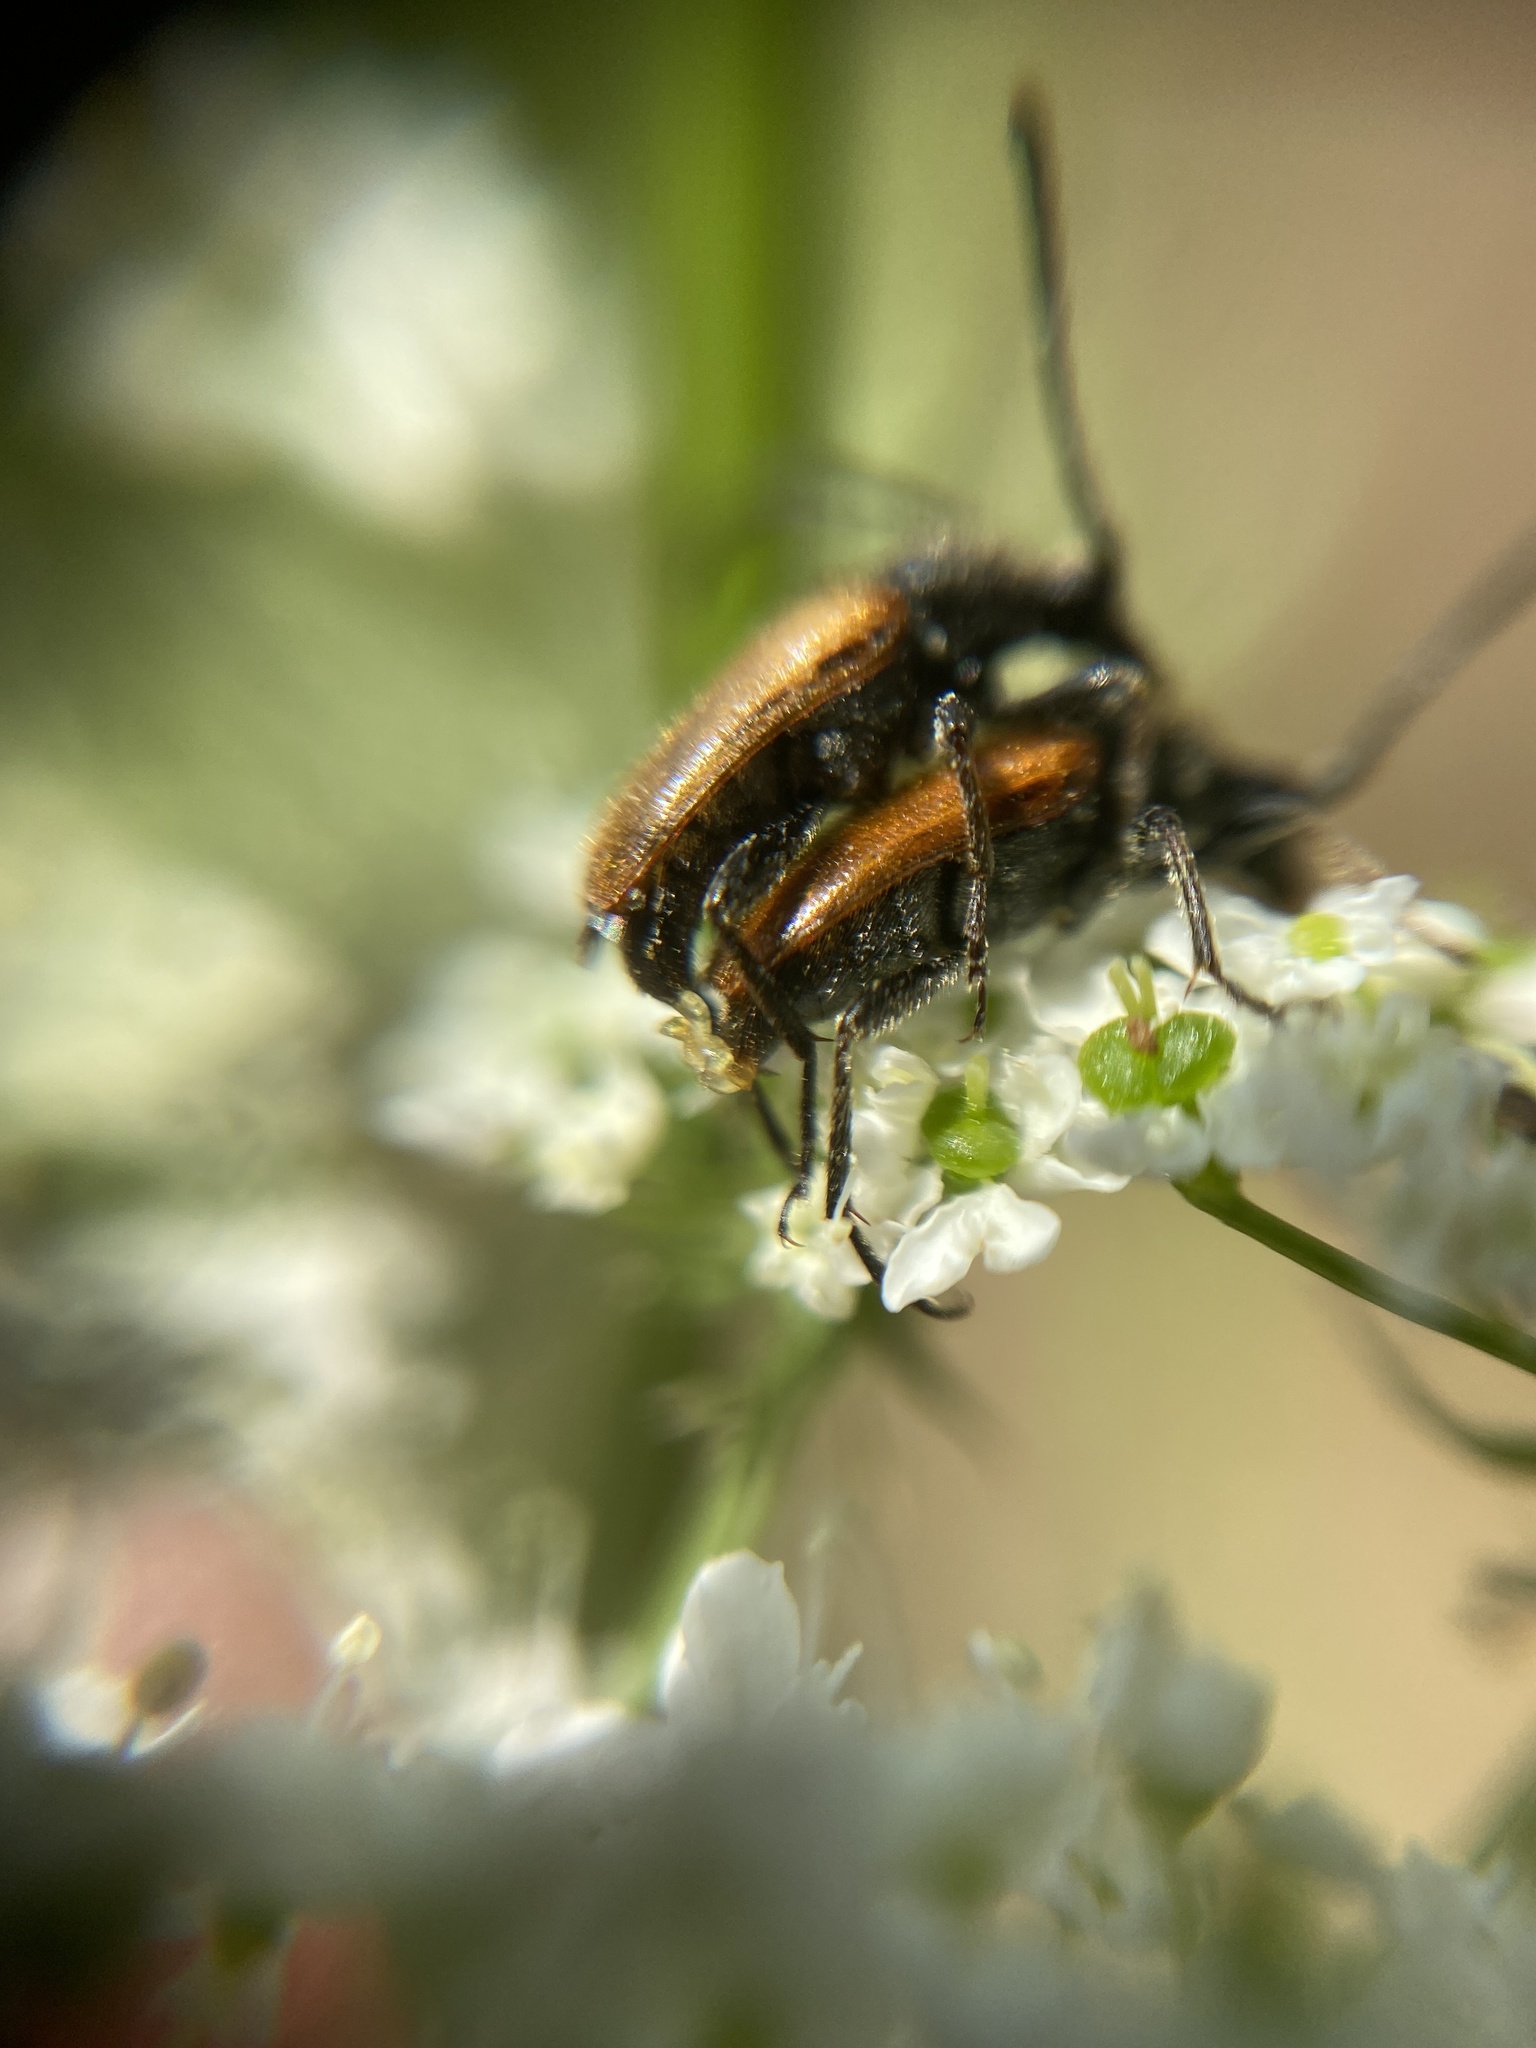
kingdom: Animalia
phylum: Arthropoda
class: Insecta
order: Coleoptera
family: Cerambycidae
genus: Pseudovadonia
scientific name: Pseudovadonia livida
